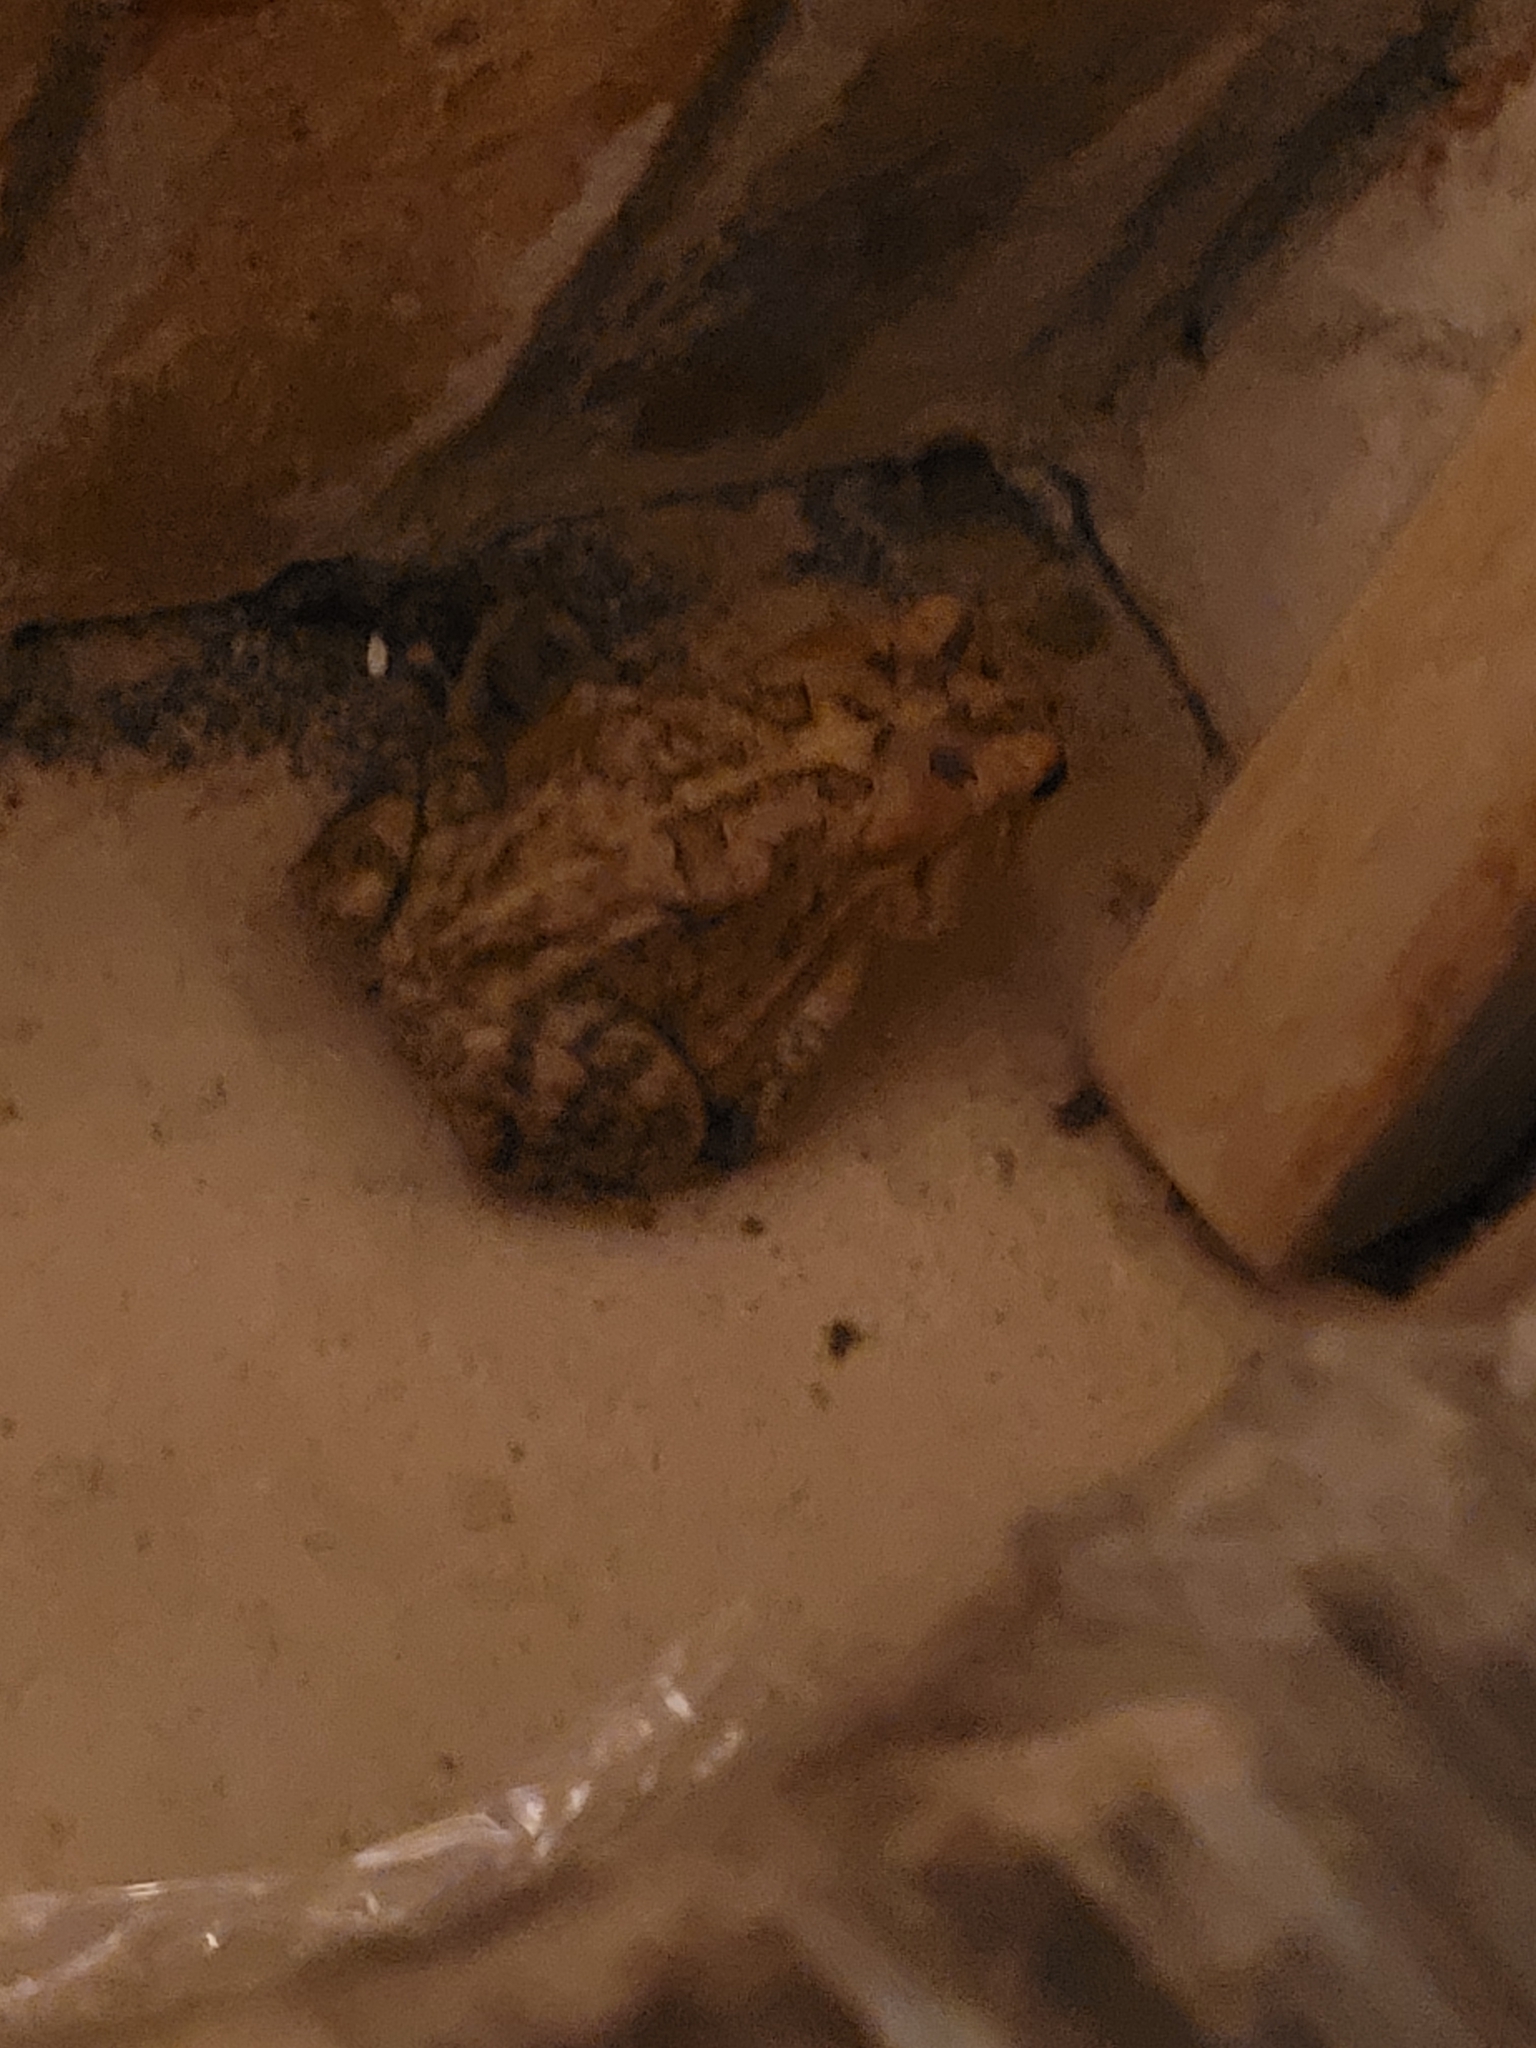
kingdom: Animalia
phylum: Chordata
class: Amphibia
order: Anura
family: Bufonidae
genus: Anaxyrus
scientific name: Anaxyrus terrestris
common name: Southern toad
